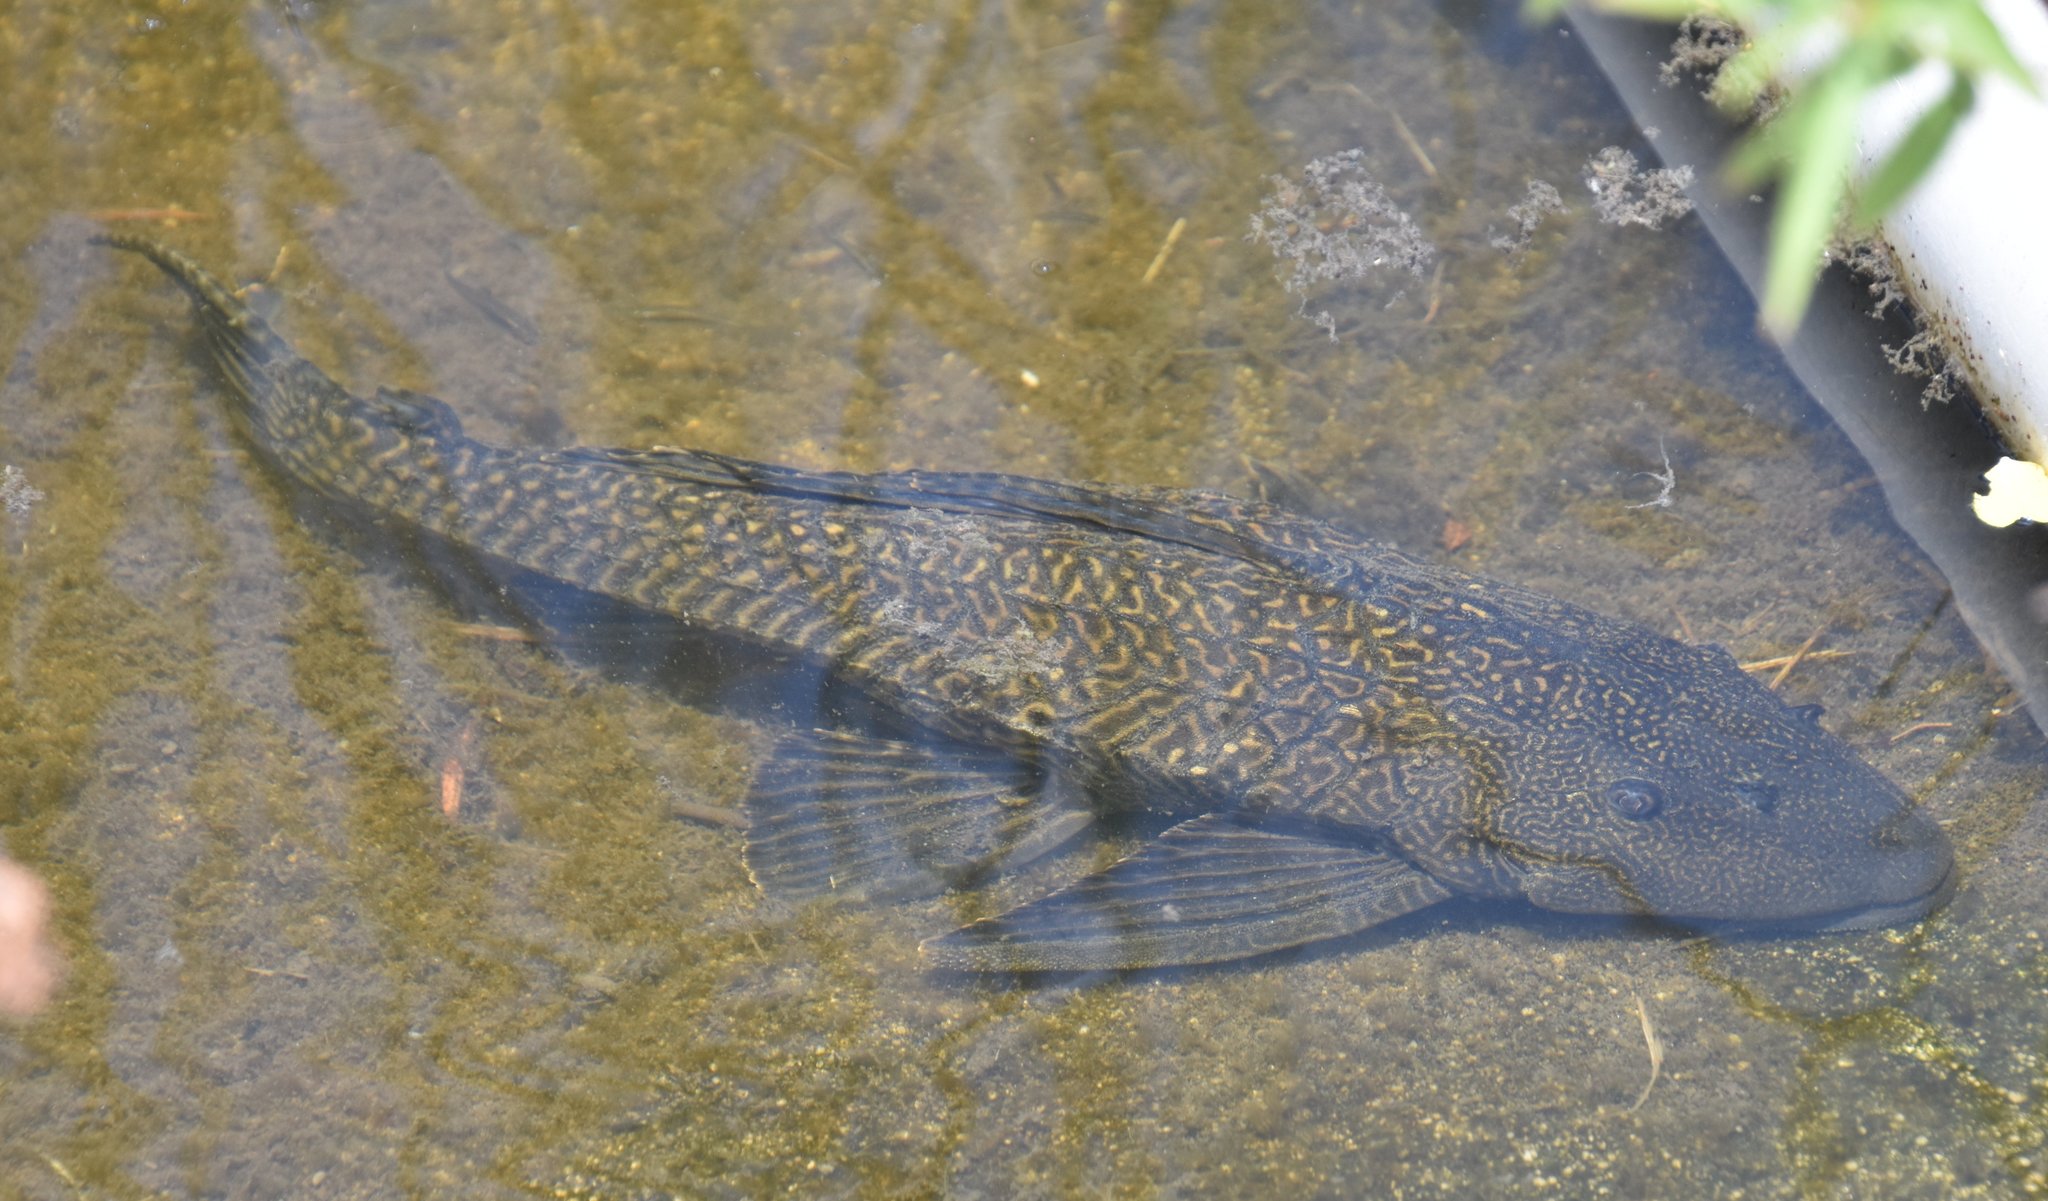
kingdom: Animalia
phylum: Chordata
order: Siluriformes
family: Loricariidae
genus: Pterygoplichthys
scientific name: Pterygoplichthys
